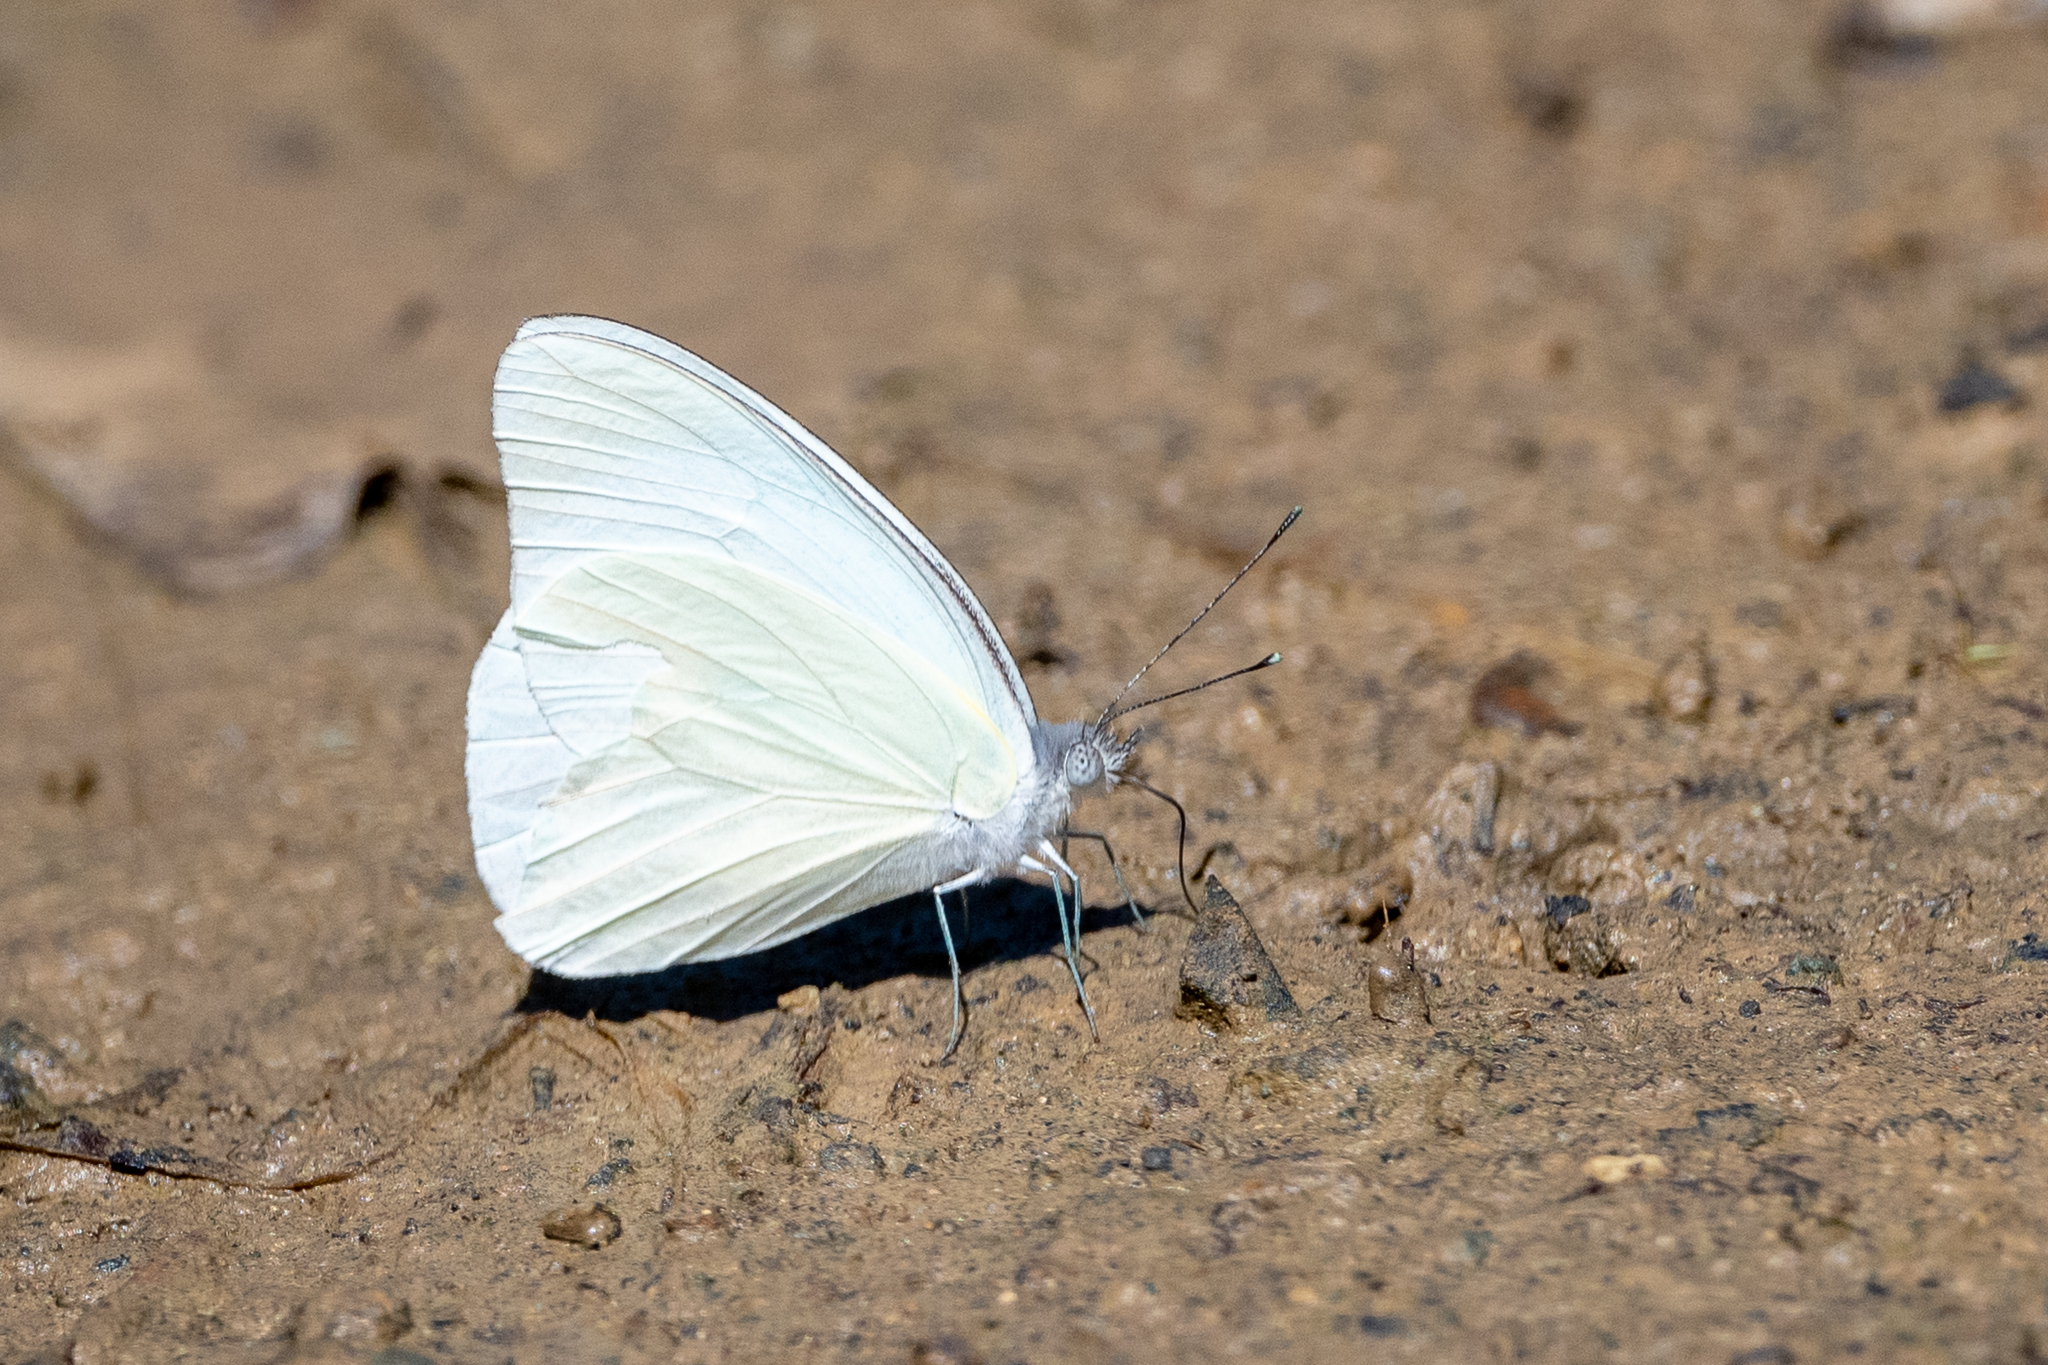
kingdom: Animalia
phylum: Arthropoda
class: Insecta
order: Lepidoptera
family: Pieridae
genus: Glutophrissa
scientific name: Glutophrissa drusilla
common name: Florida white
